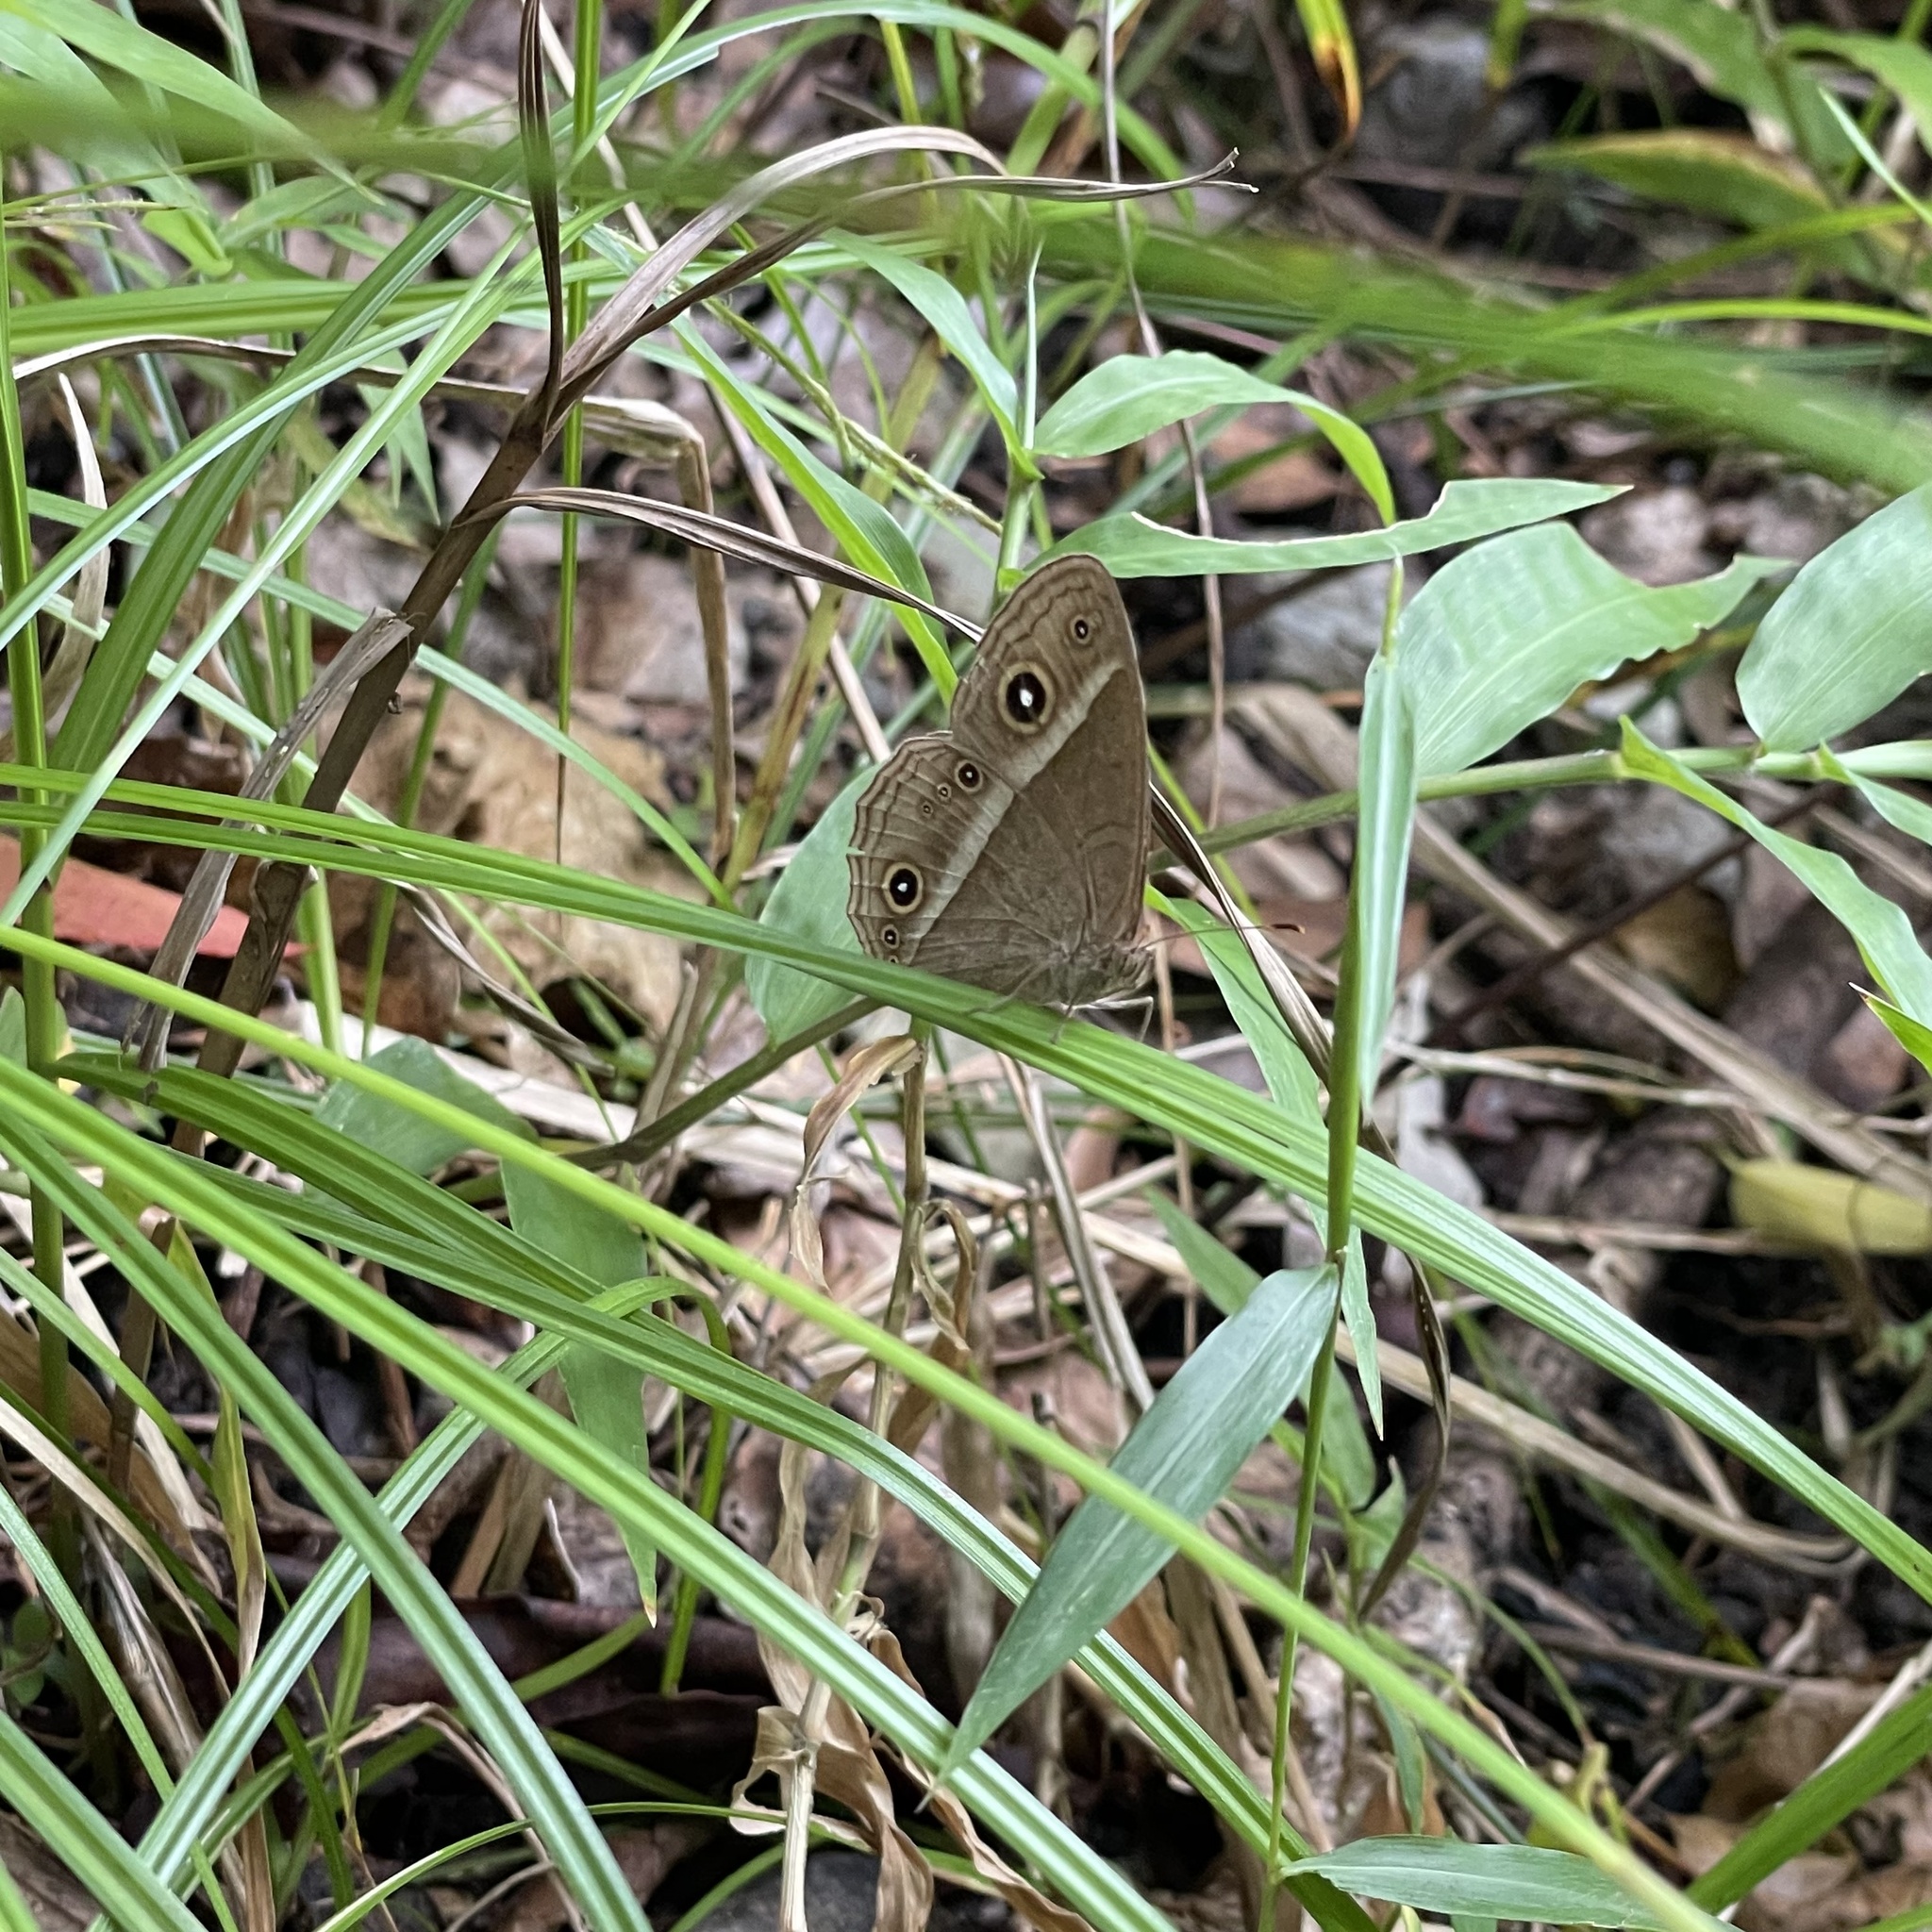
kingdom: Animalia
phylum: Arthropoda
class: Insecta
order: Lepidoptera
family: Nymphalidae
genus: Mycalesis
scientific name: Mycalesis gotama
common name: Chinese bushbrown
